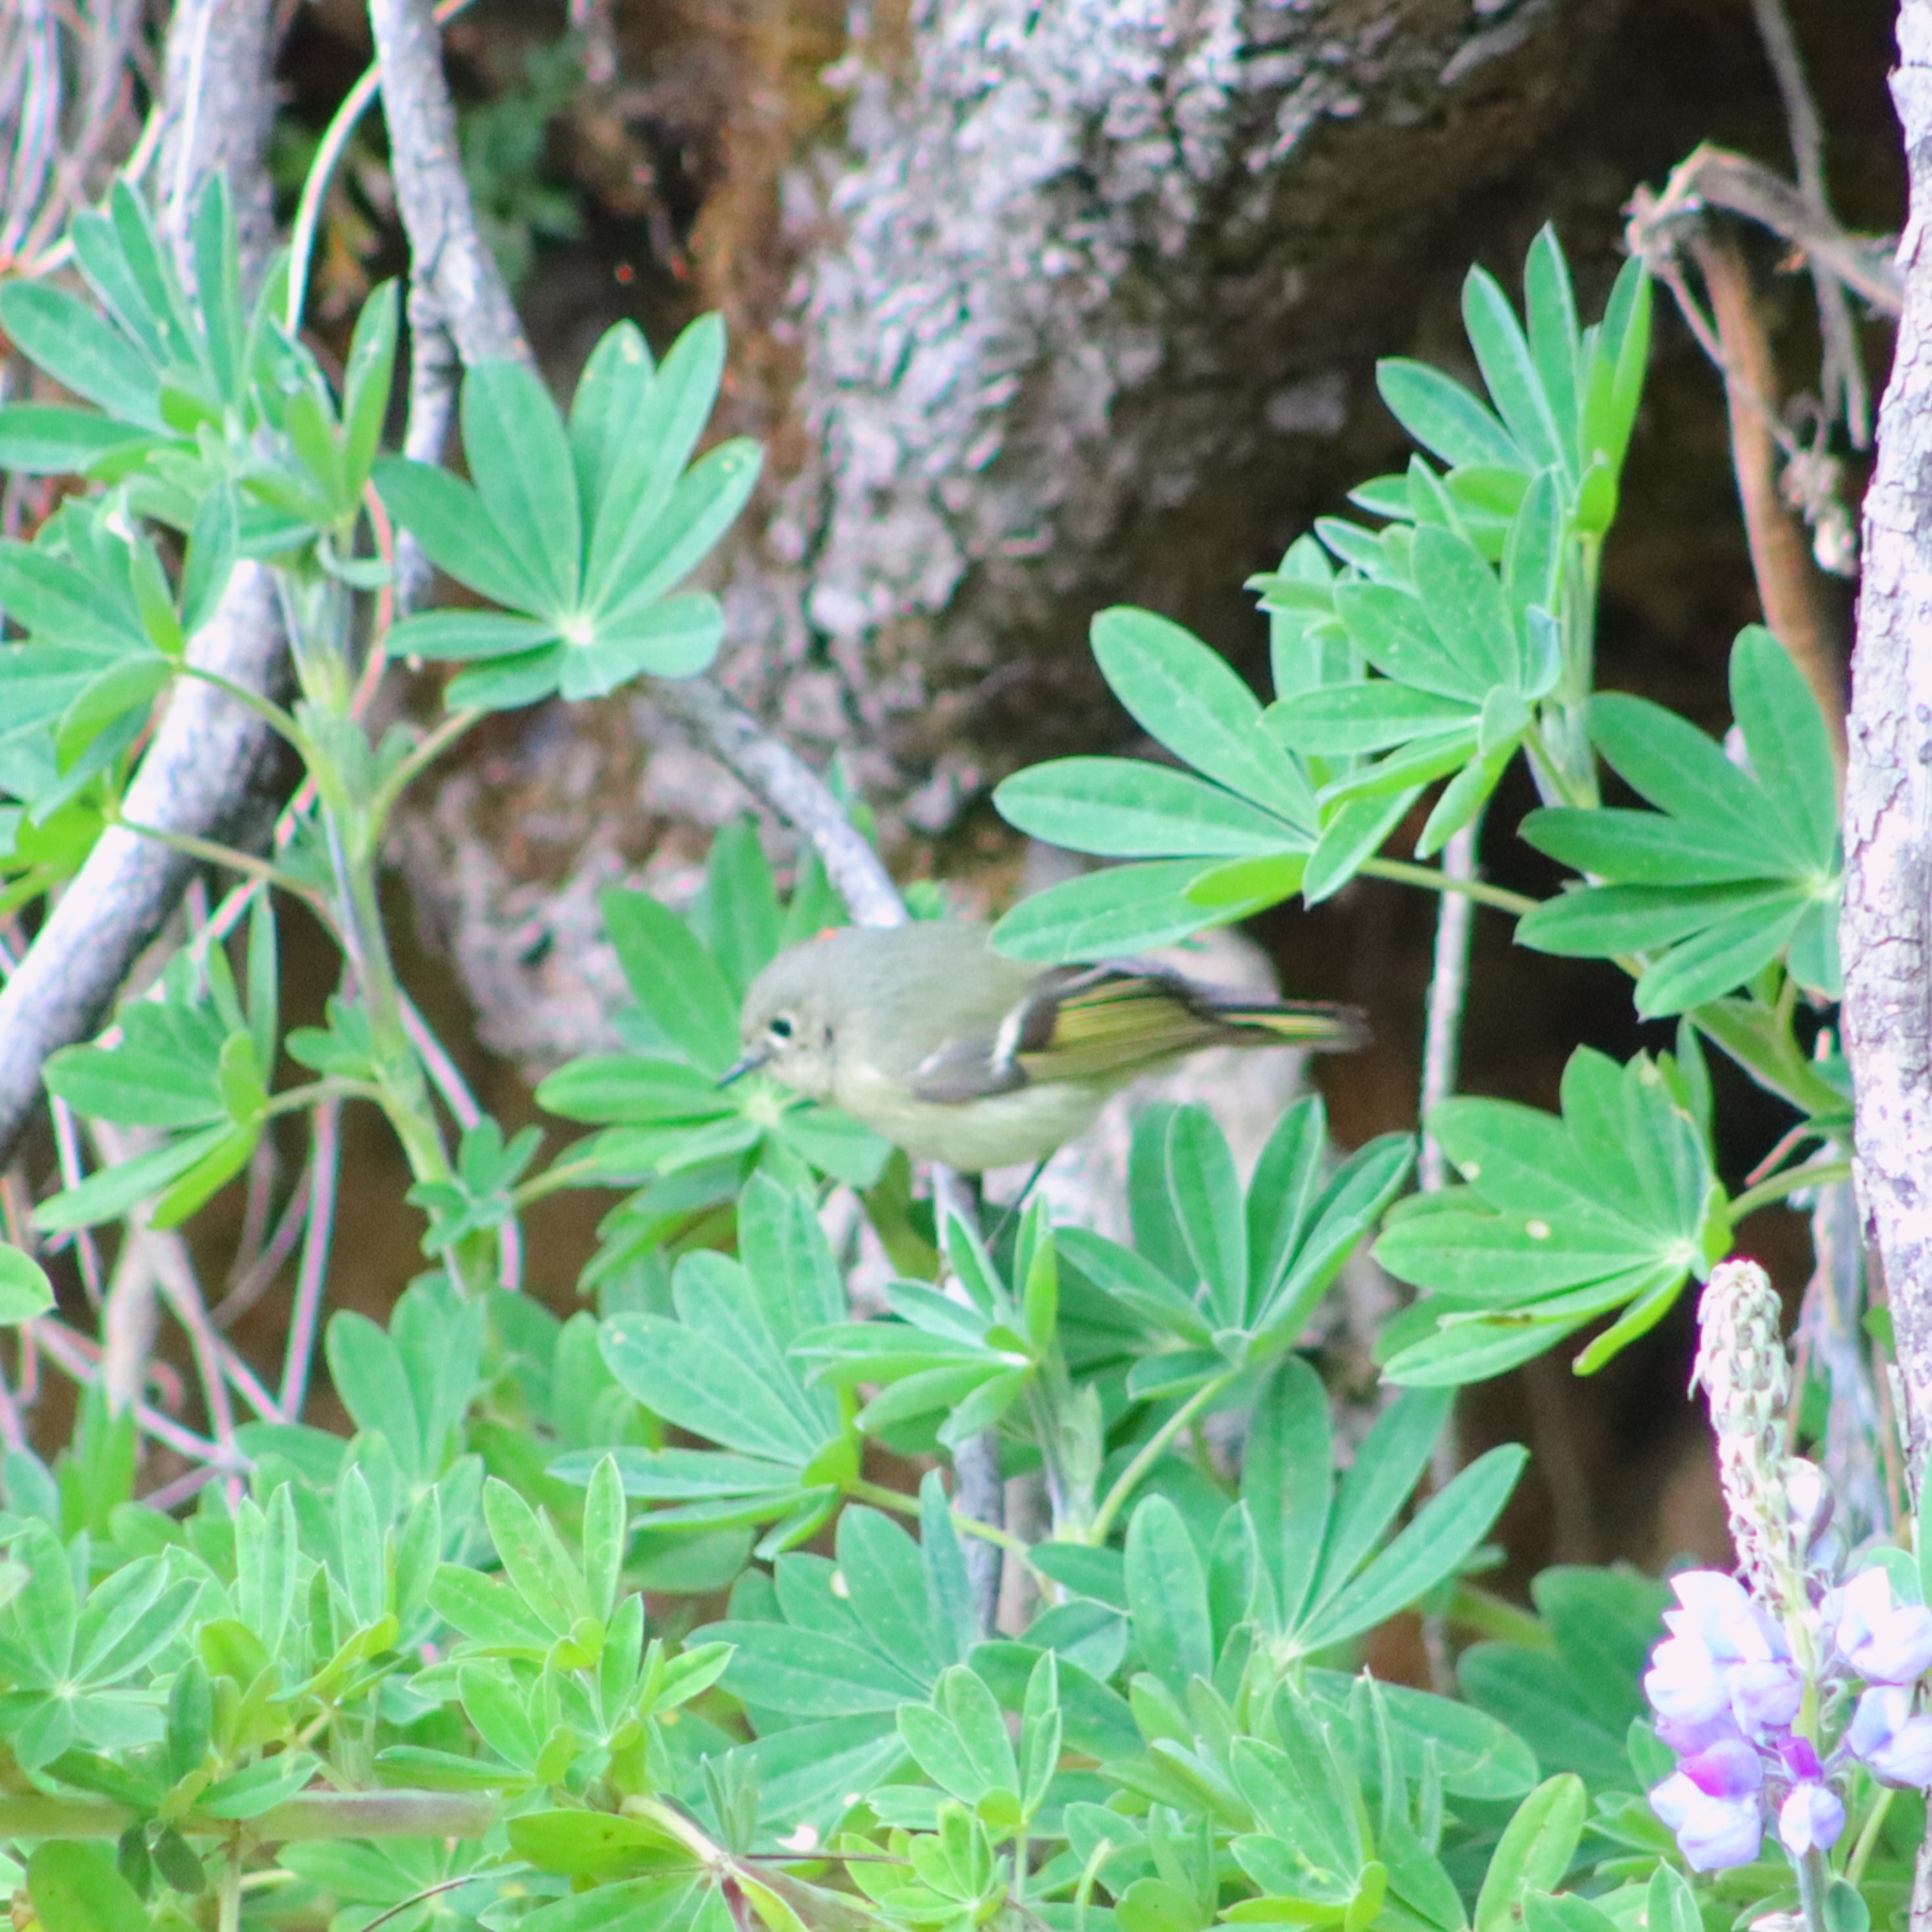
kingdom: Animalia
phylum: Chordata
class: Aves
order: Passeriformes
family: Regulidae
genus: Regulus
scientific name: Regulus calendula
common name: Ruby-crowned kinglet
